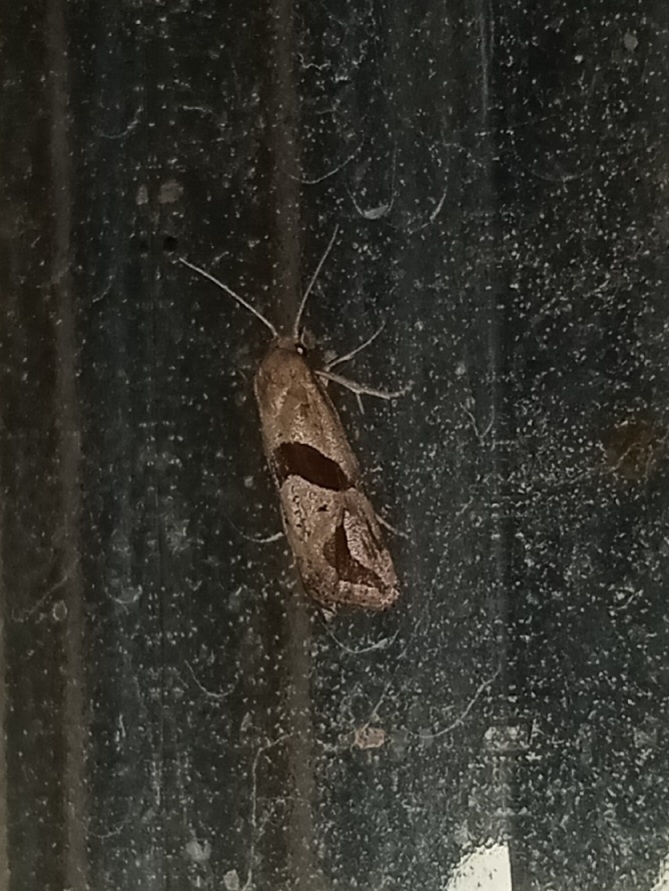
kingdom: Animalia
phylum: Arthropoda
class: Insecta
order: Lepidoptera
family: Tortricidae
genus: Eugnosta
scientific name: Eugnosta sartana
